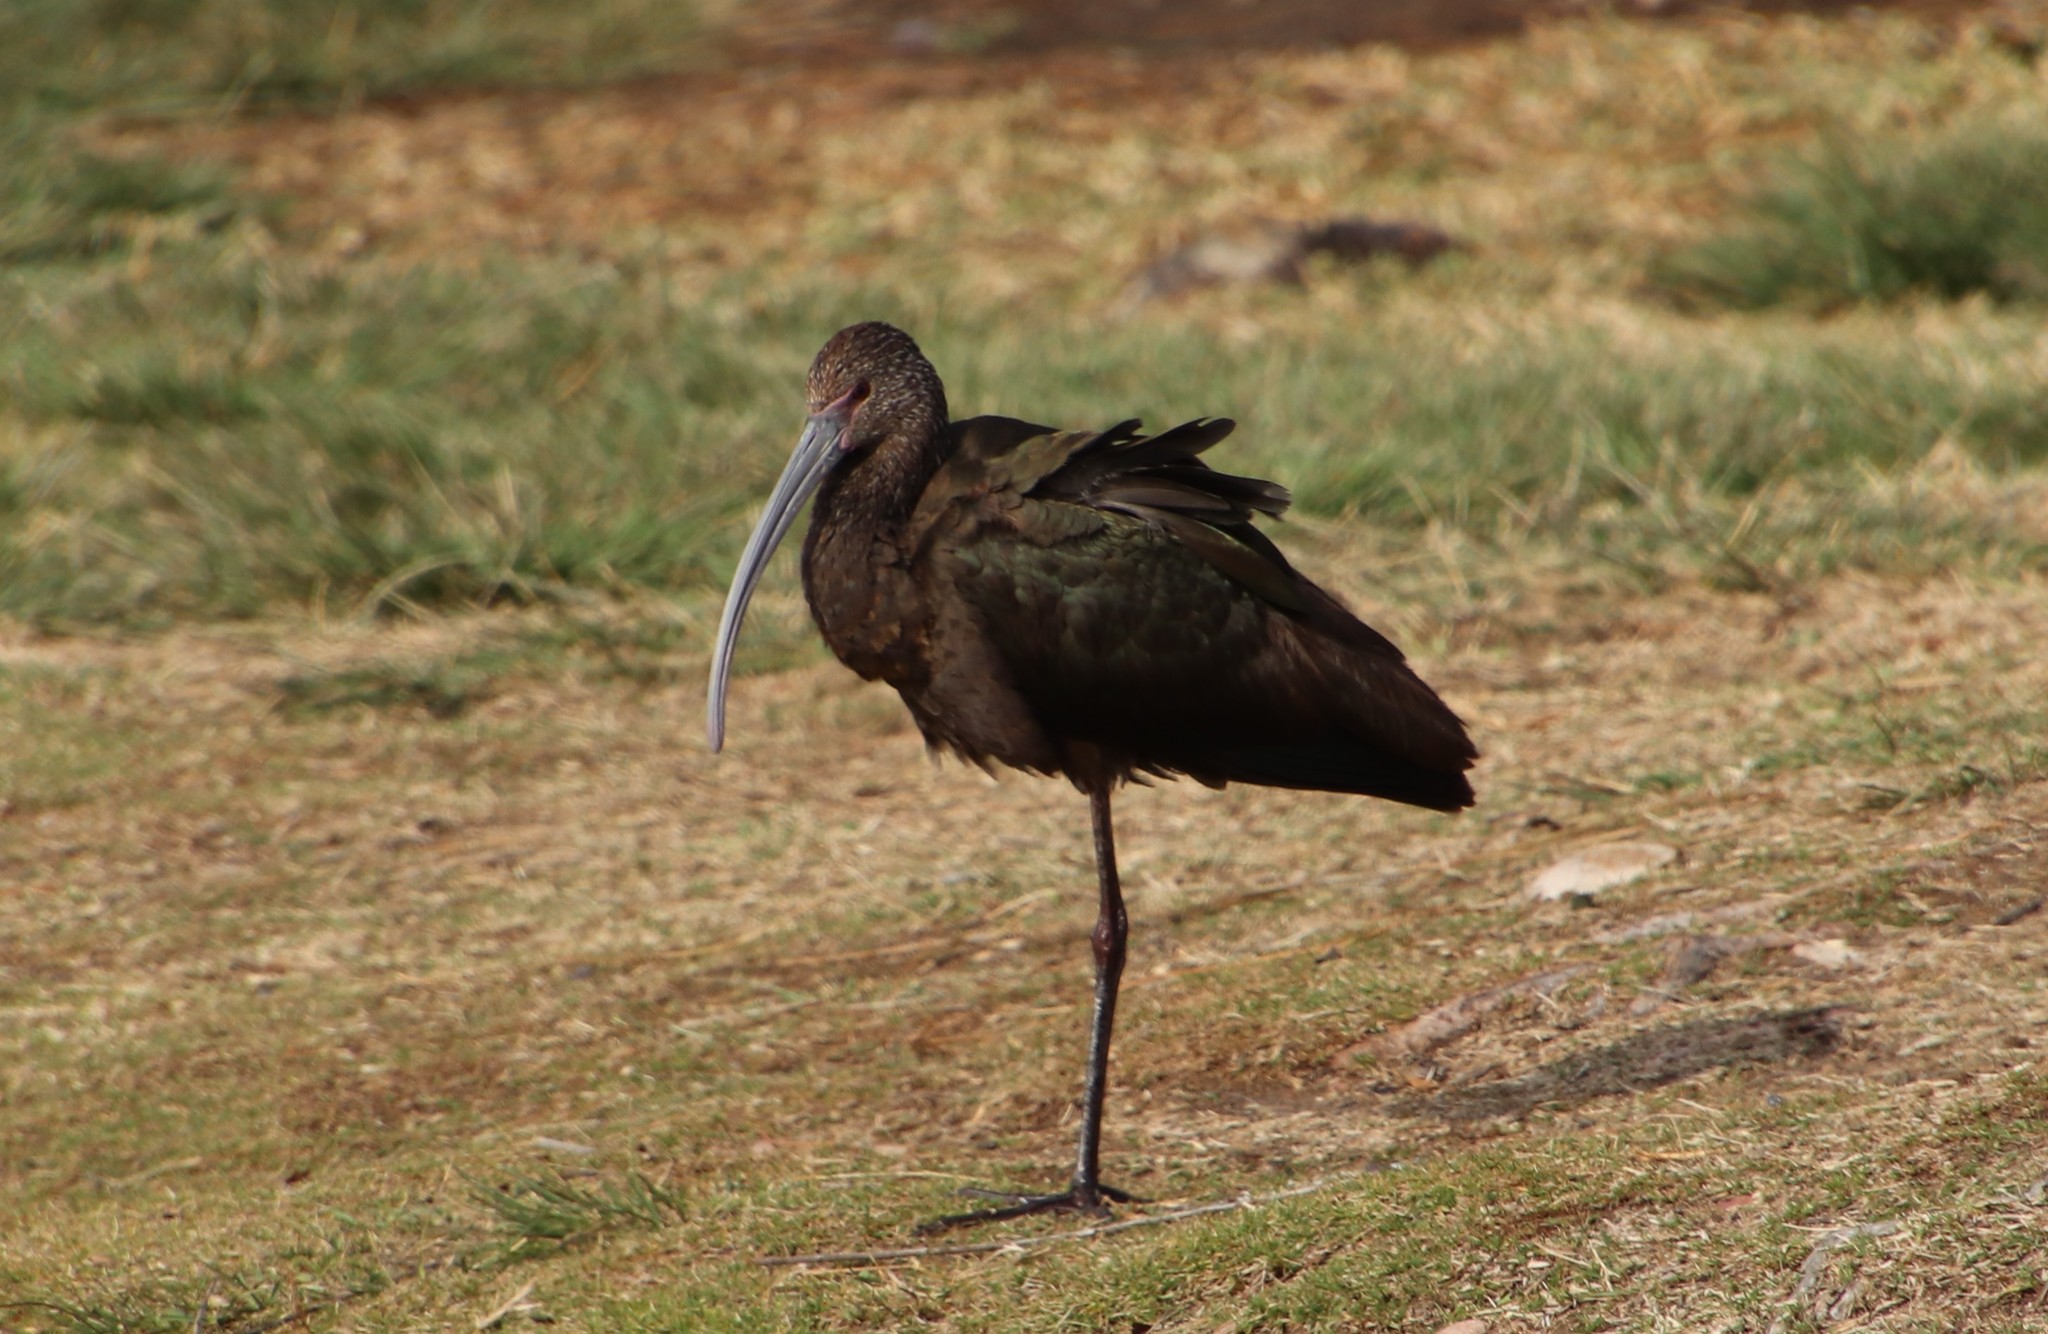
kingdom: Animalia
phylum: Chordata
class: Aves
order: Pelecaniformes
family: Threskiornithidae
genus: Plegadis
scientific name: Plegadis chihi
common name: White-faced ibis
